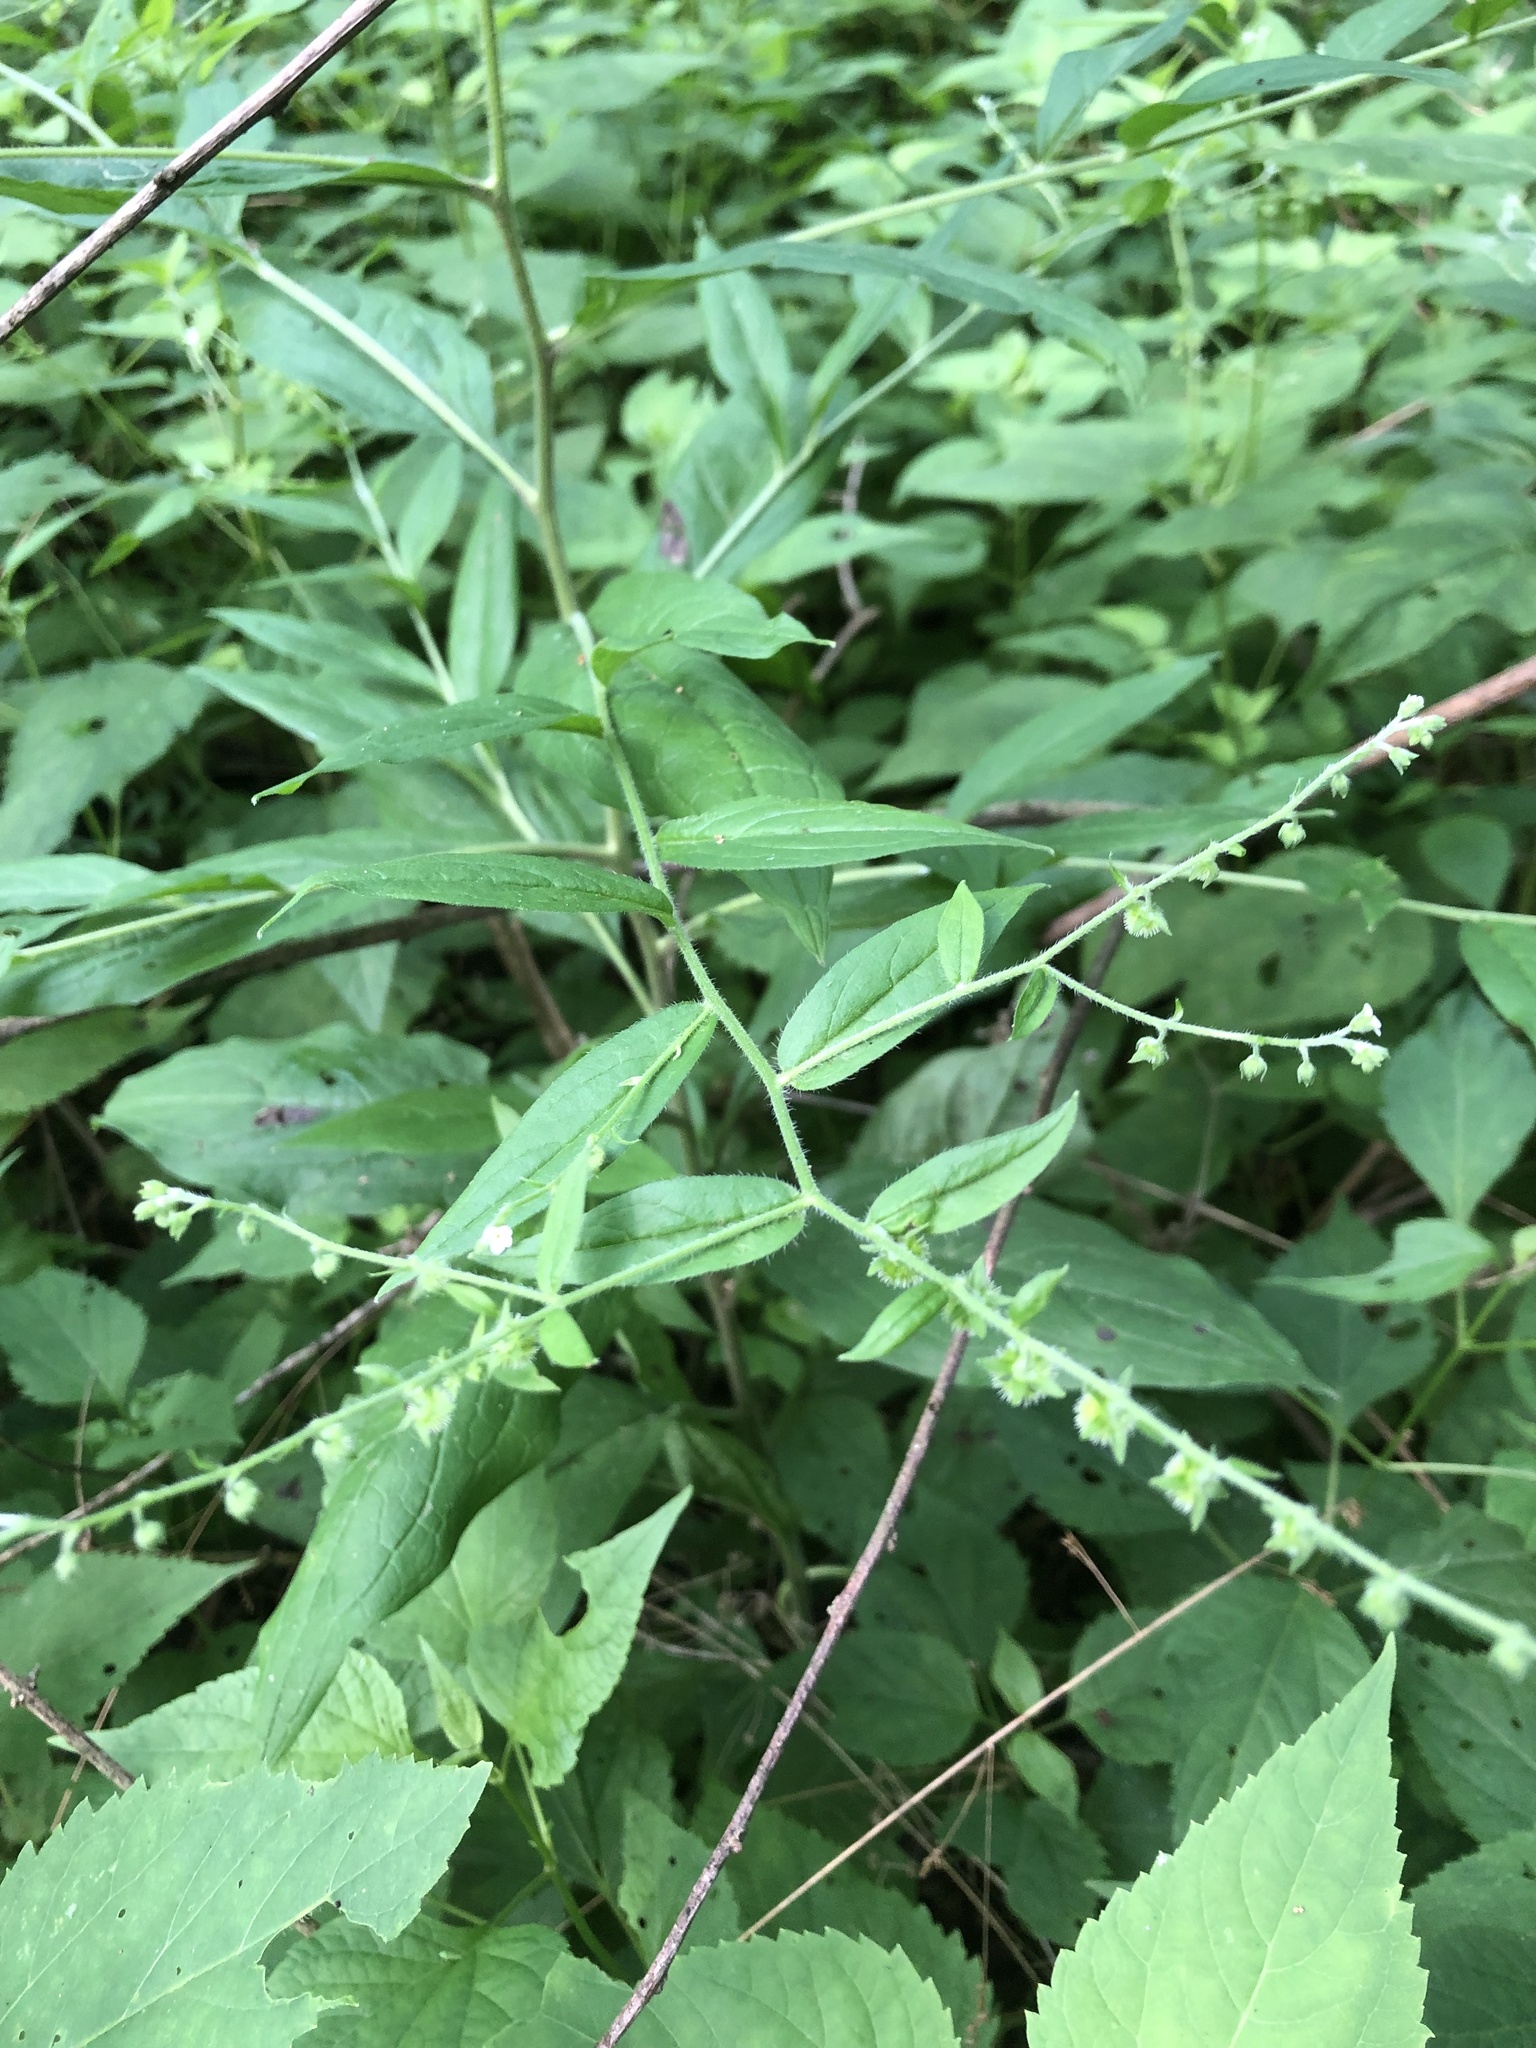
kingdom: Plantae
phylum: Tracheophyta
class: Magnoliopsida
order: Boraginales
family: Boraginaceae
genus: Hackelia
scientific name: Hackelia virginiana
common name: Beggar's-lice
